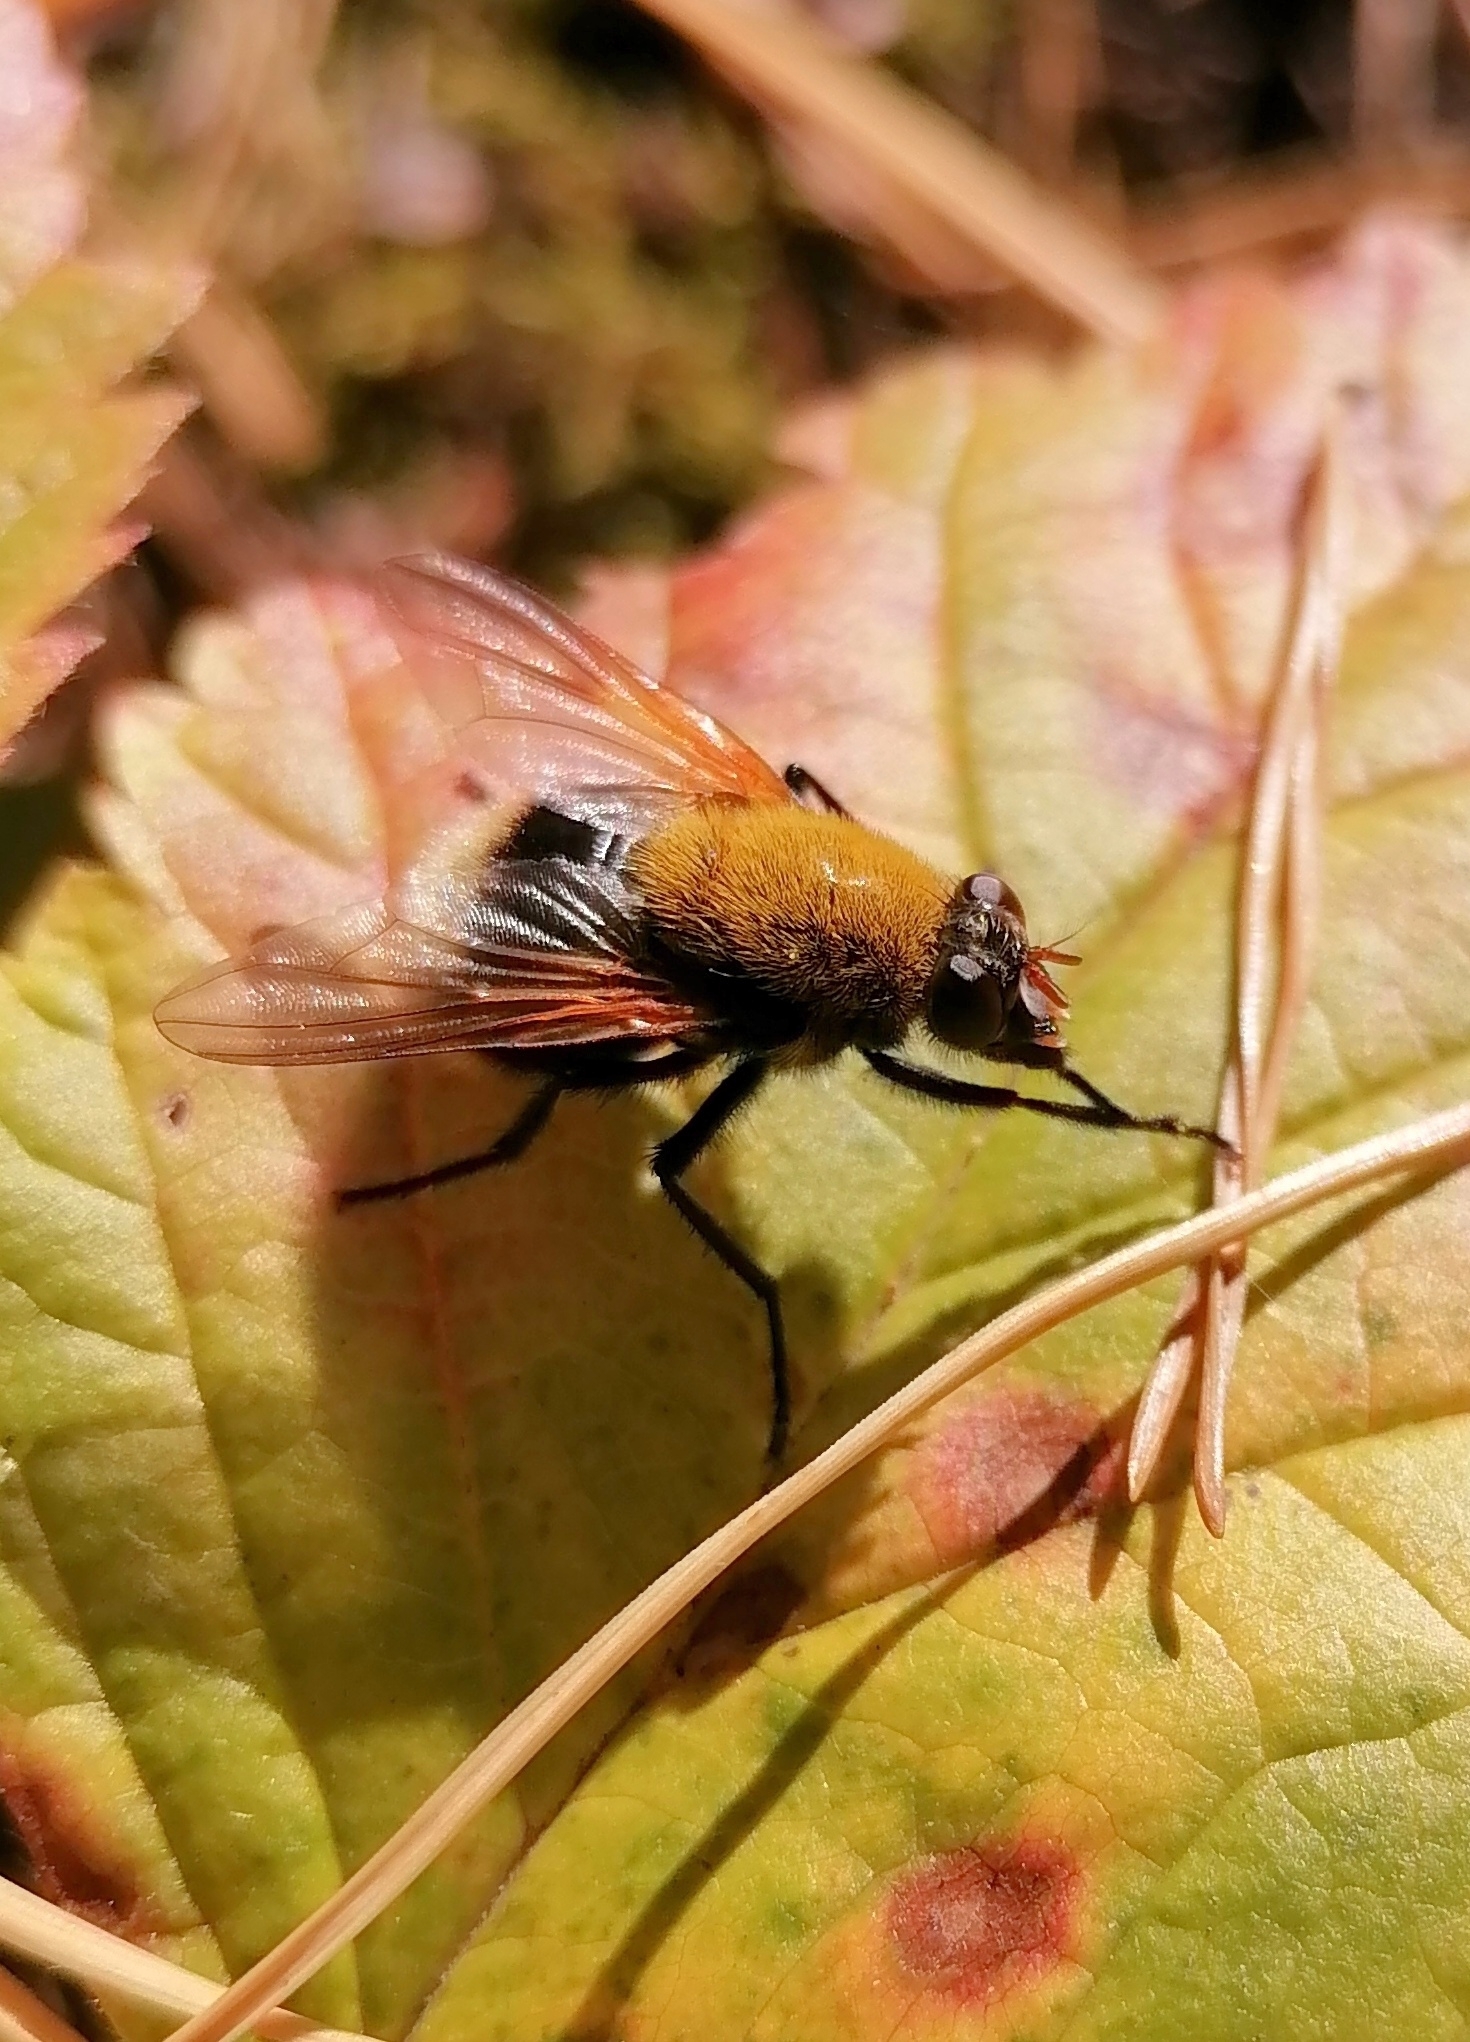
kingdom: Animalia
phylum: Arthropoda
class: Insecta
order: Diptera
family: Muscidae
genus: Mesembrina
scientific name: Mesembrina mystacea
